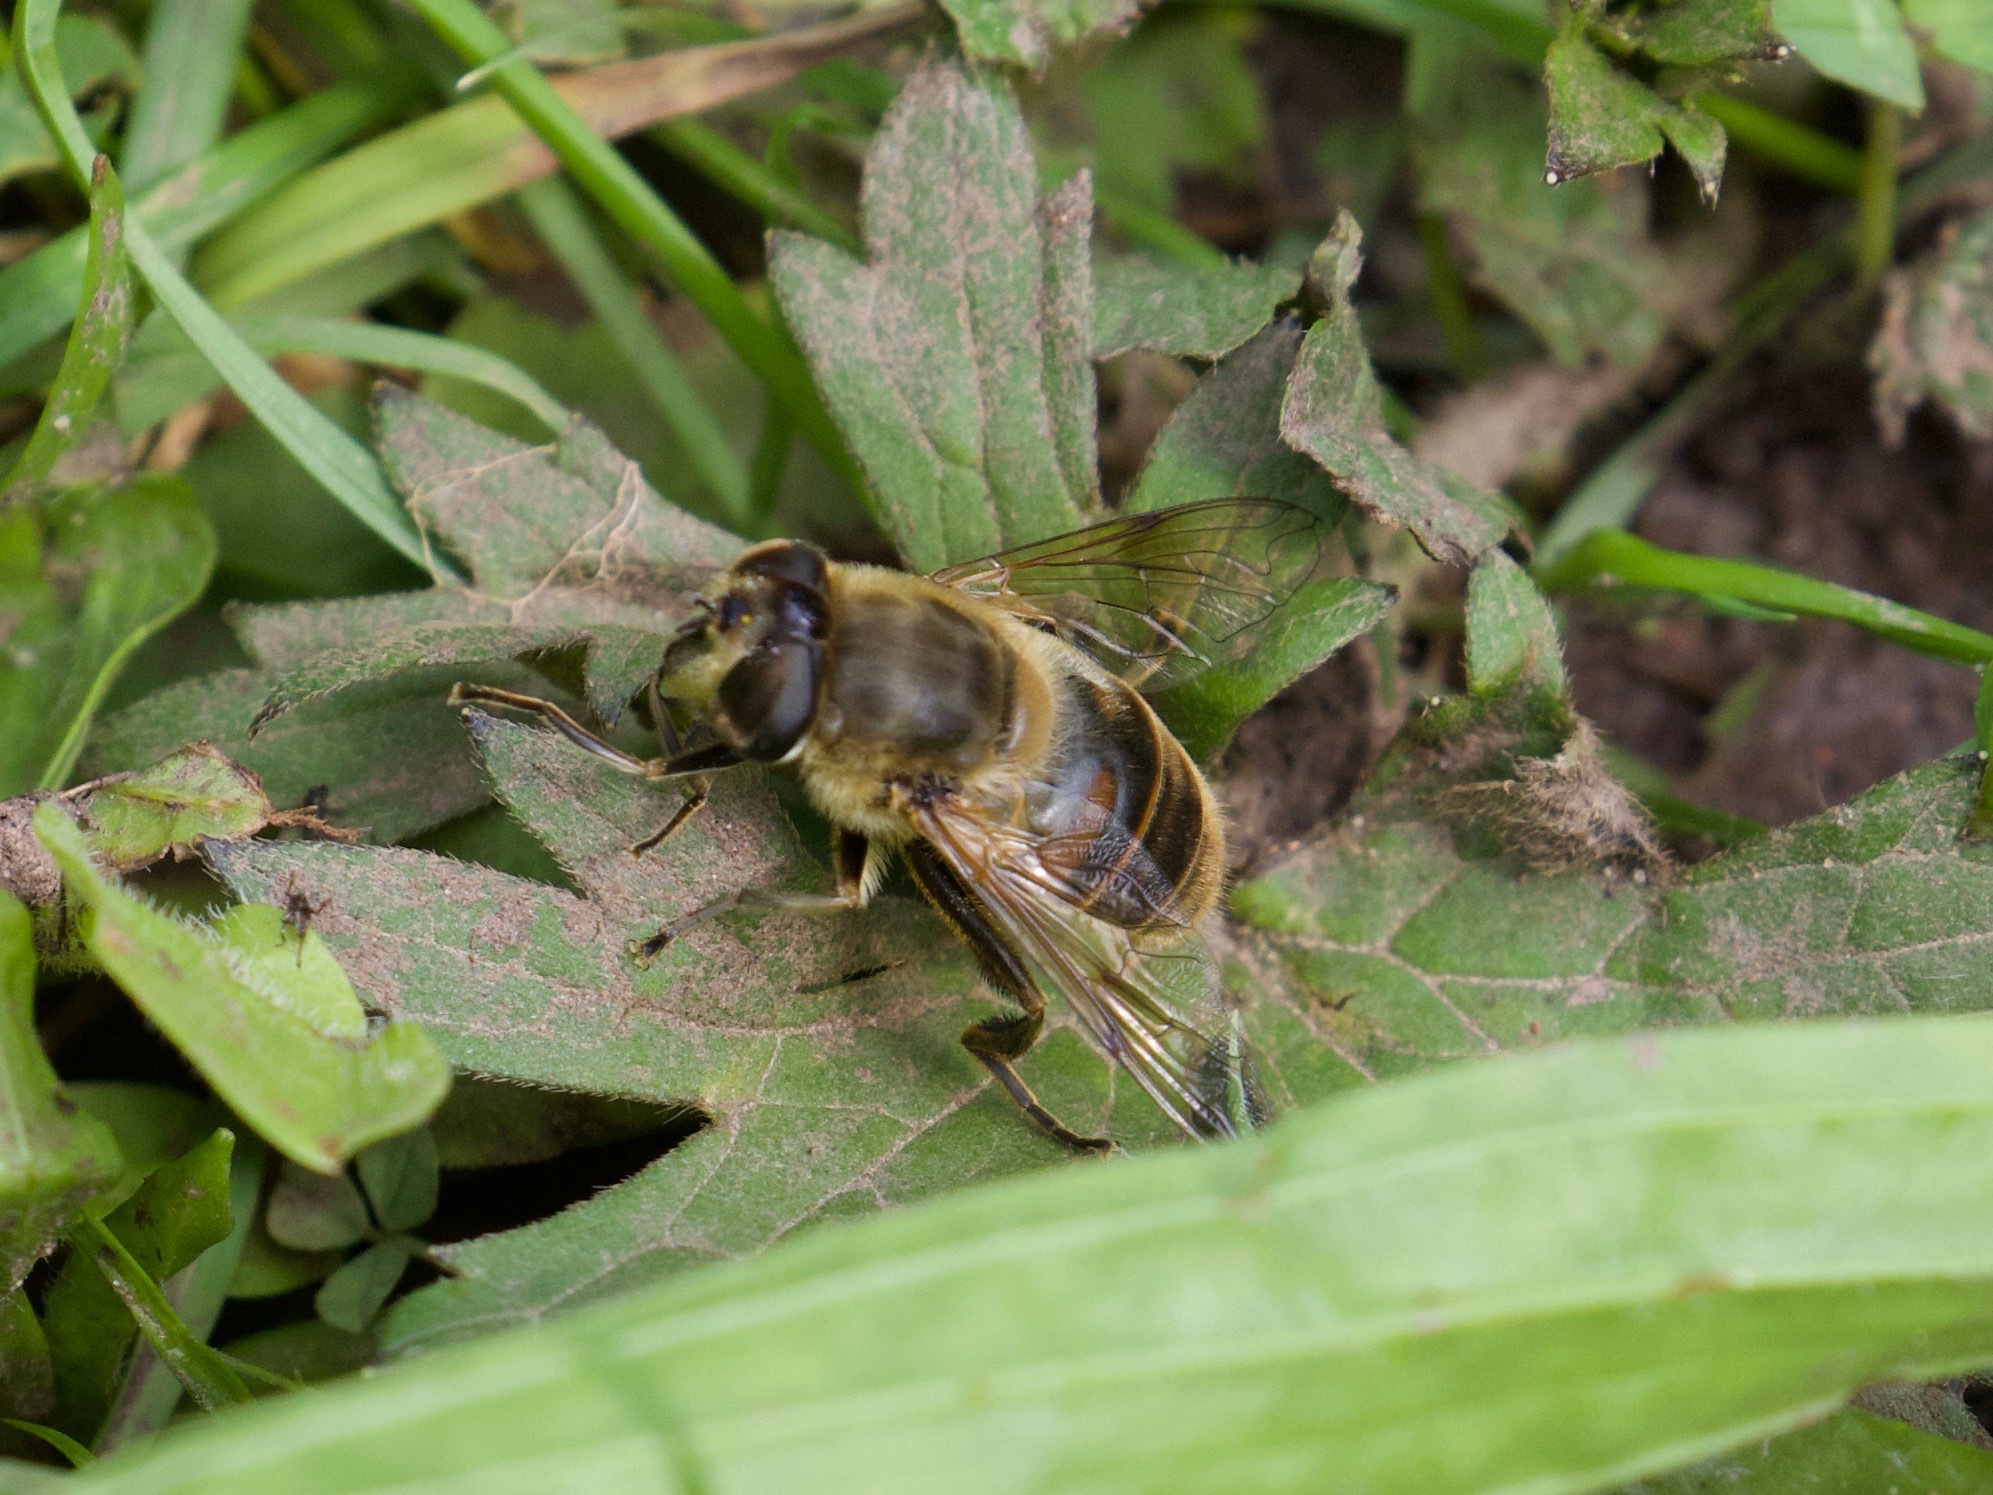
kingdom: Animalia
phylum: Arthropoda
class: Insecta
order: Diptera
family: Syrphidae
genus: Eristalis
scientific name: Eristalis tenax
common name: Drone fly
